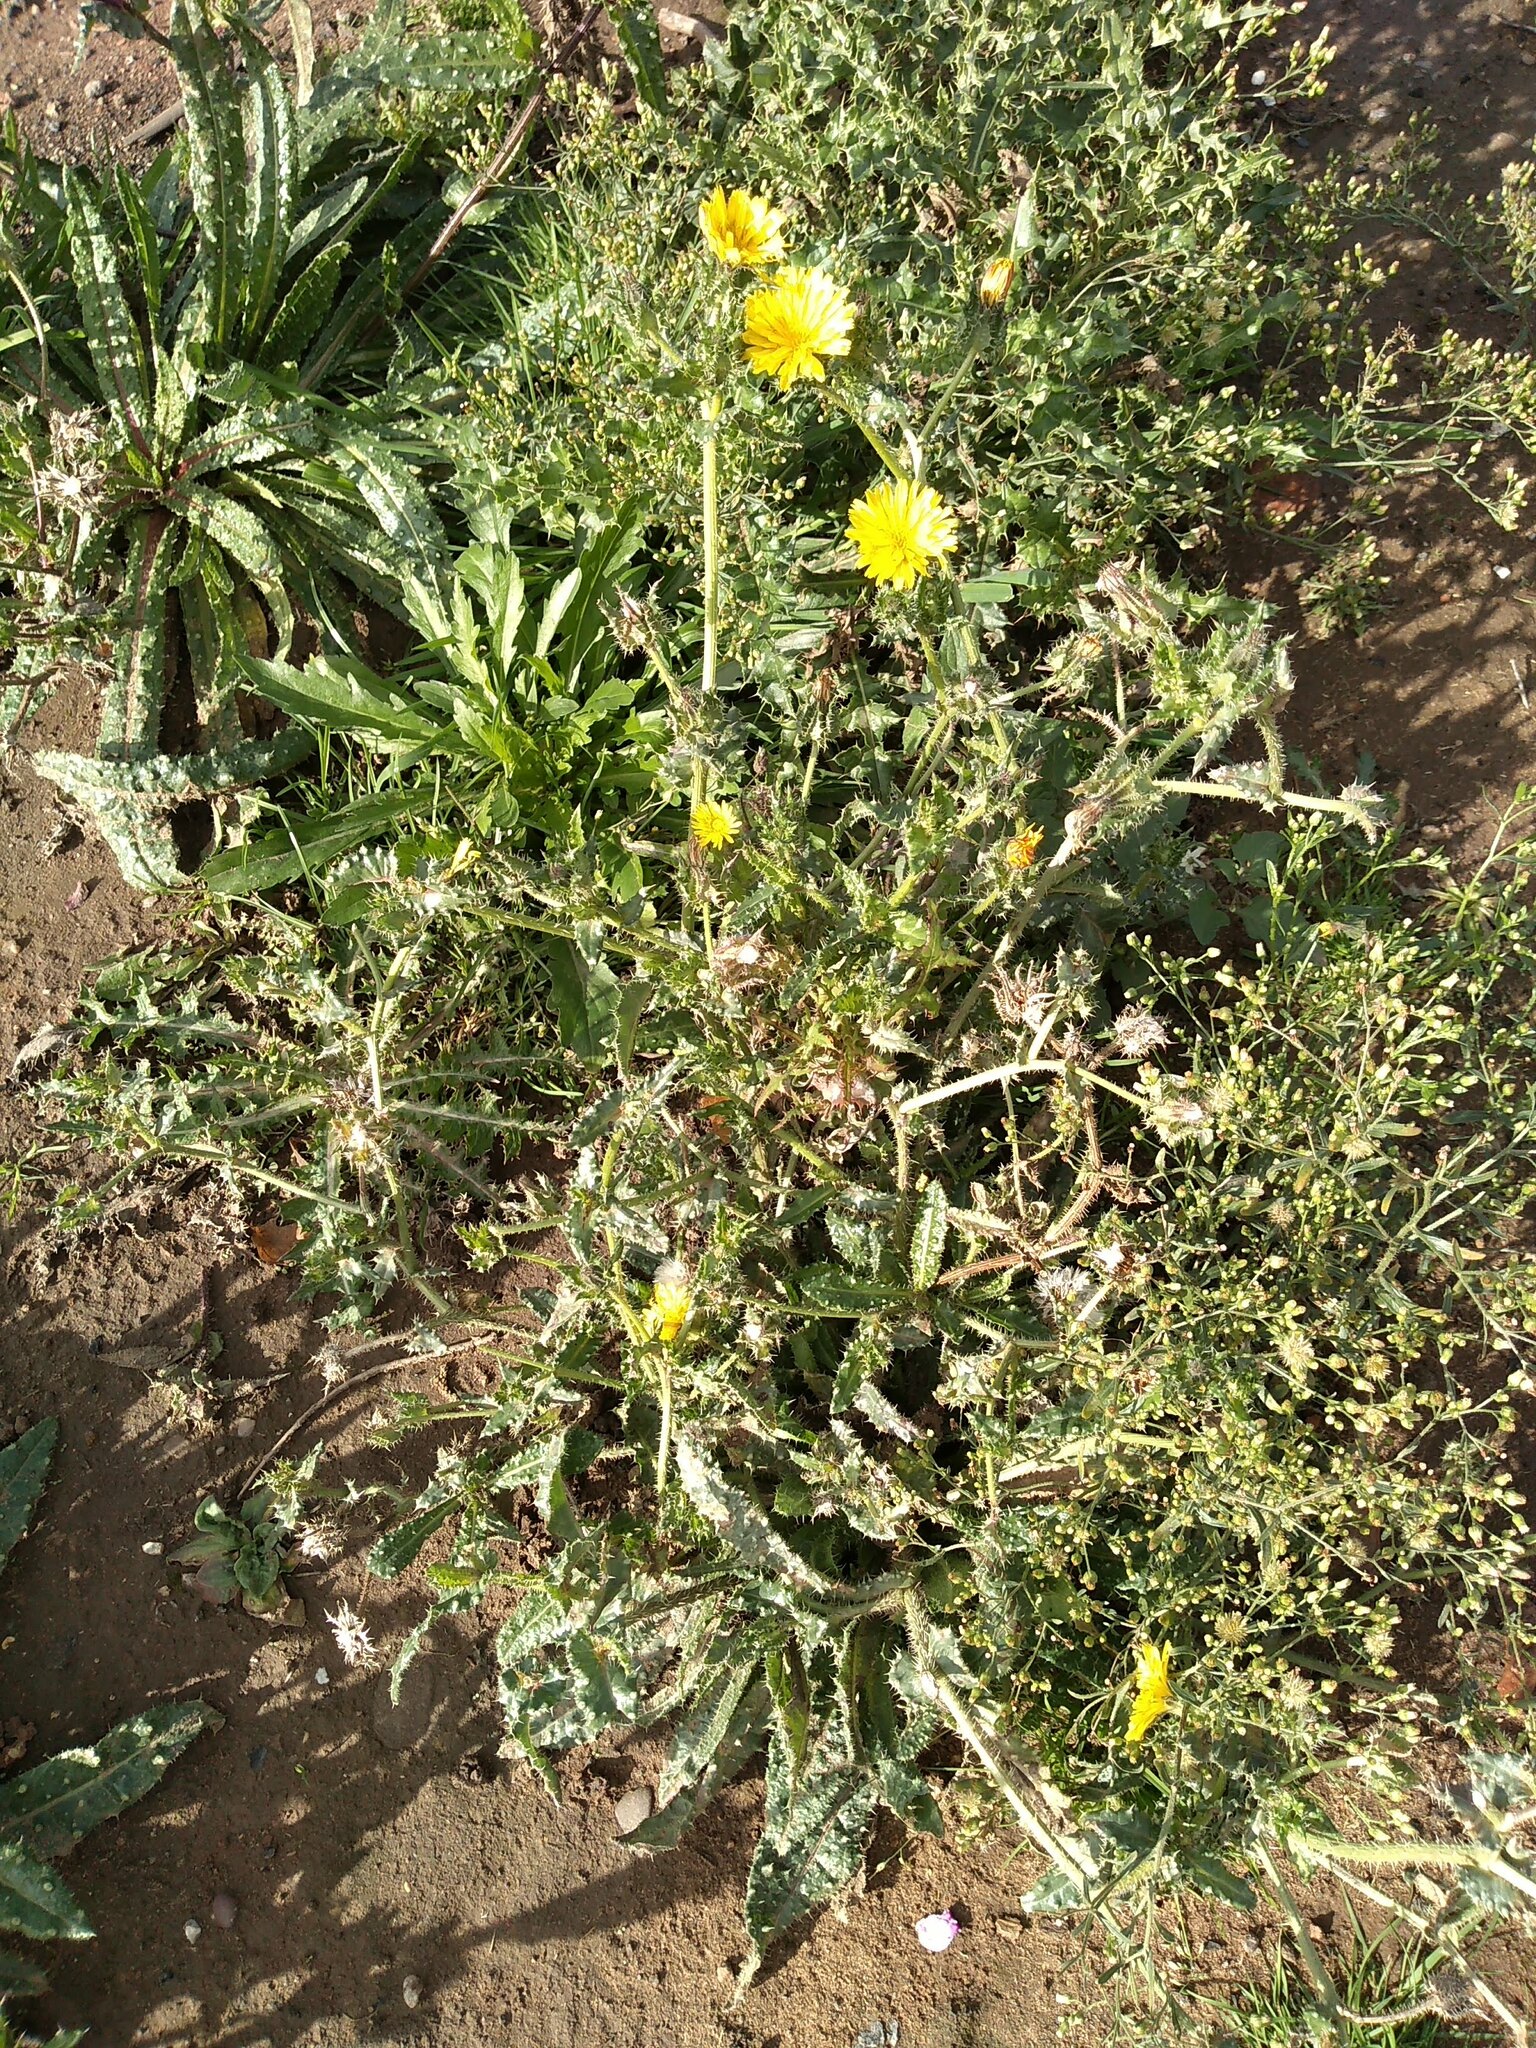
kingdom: Plantae
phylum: Tracheophyta
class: Magnoliopsida
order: Asterales
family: Asteraceae
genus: Helminthotheca
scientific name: Helminthotheca echioides
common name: Ox-tongue
